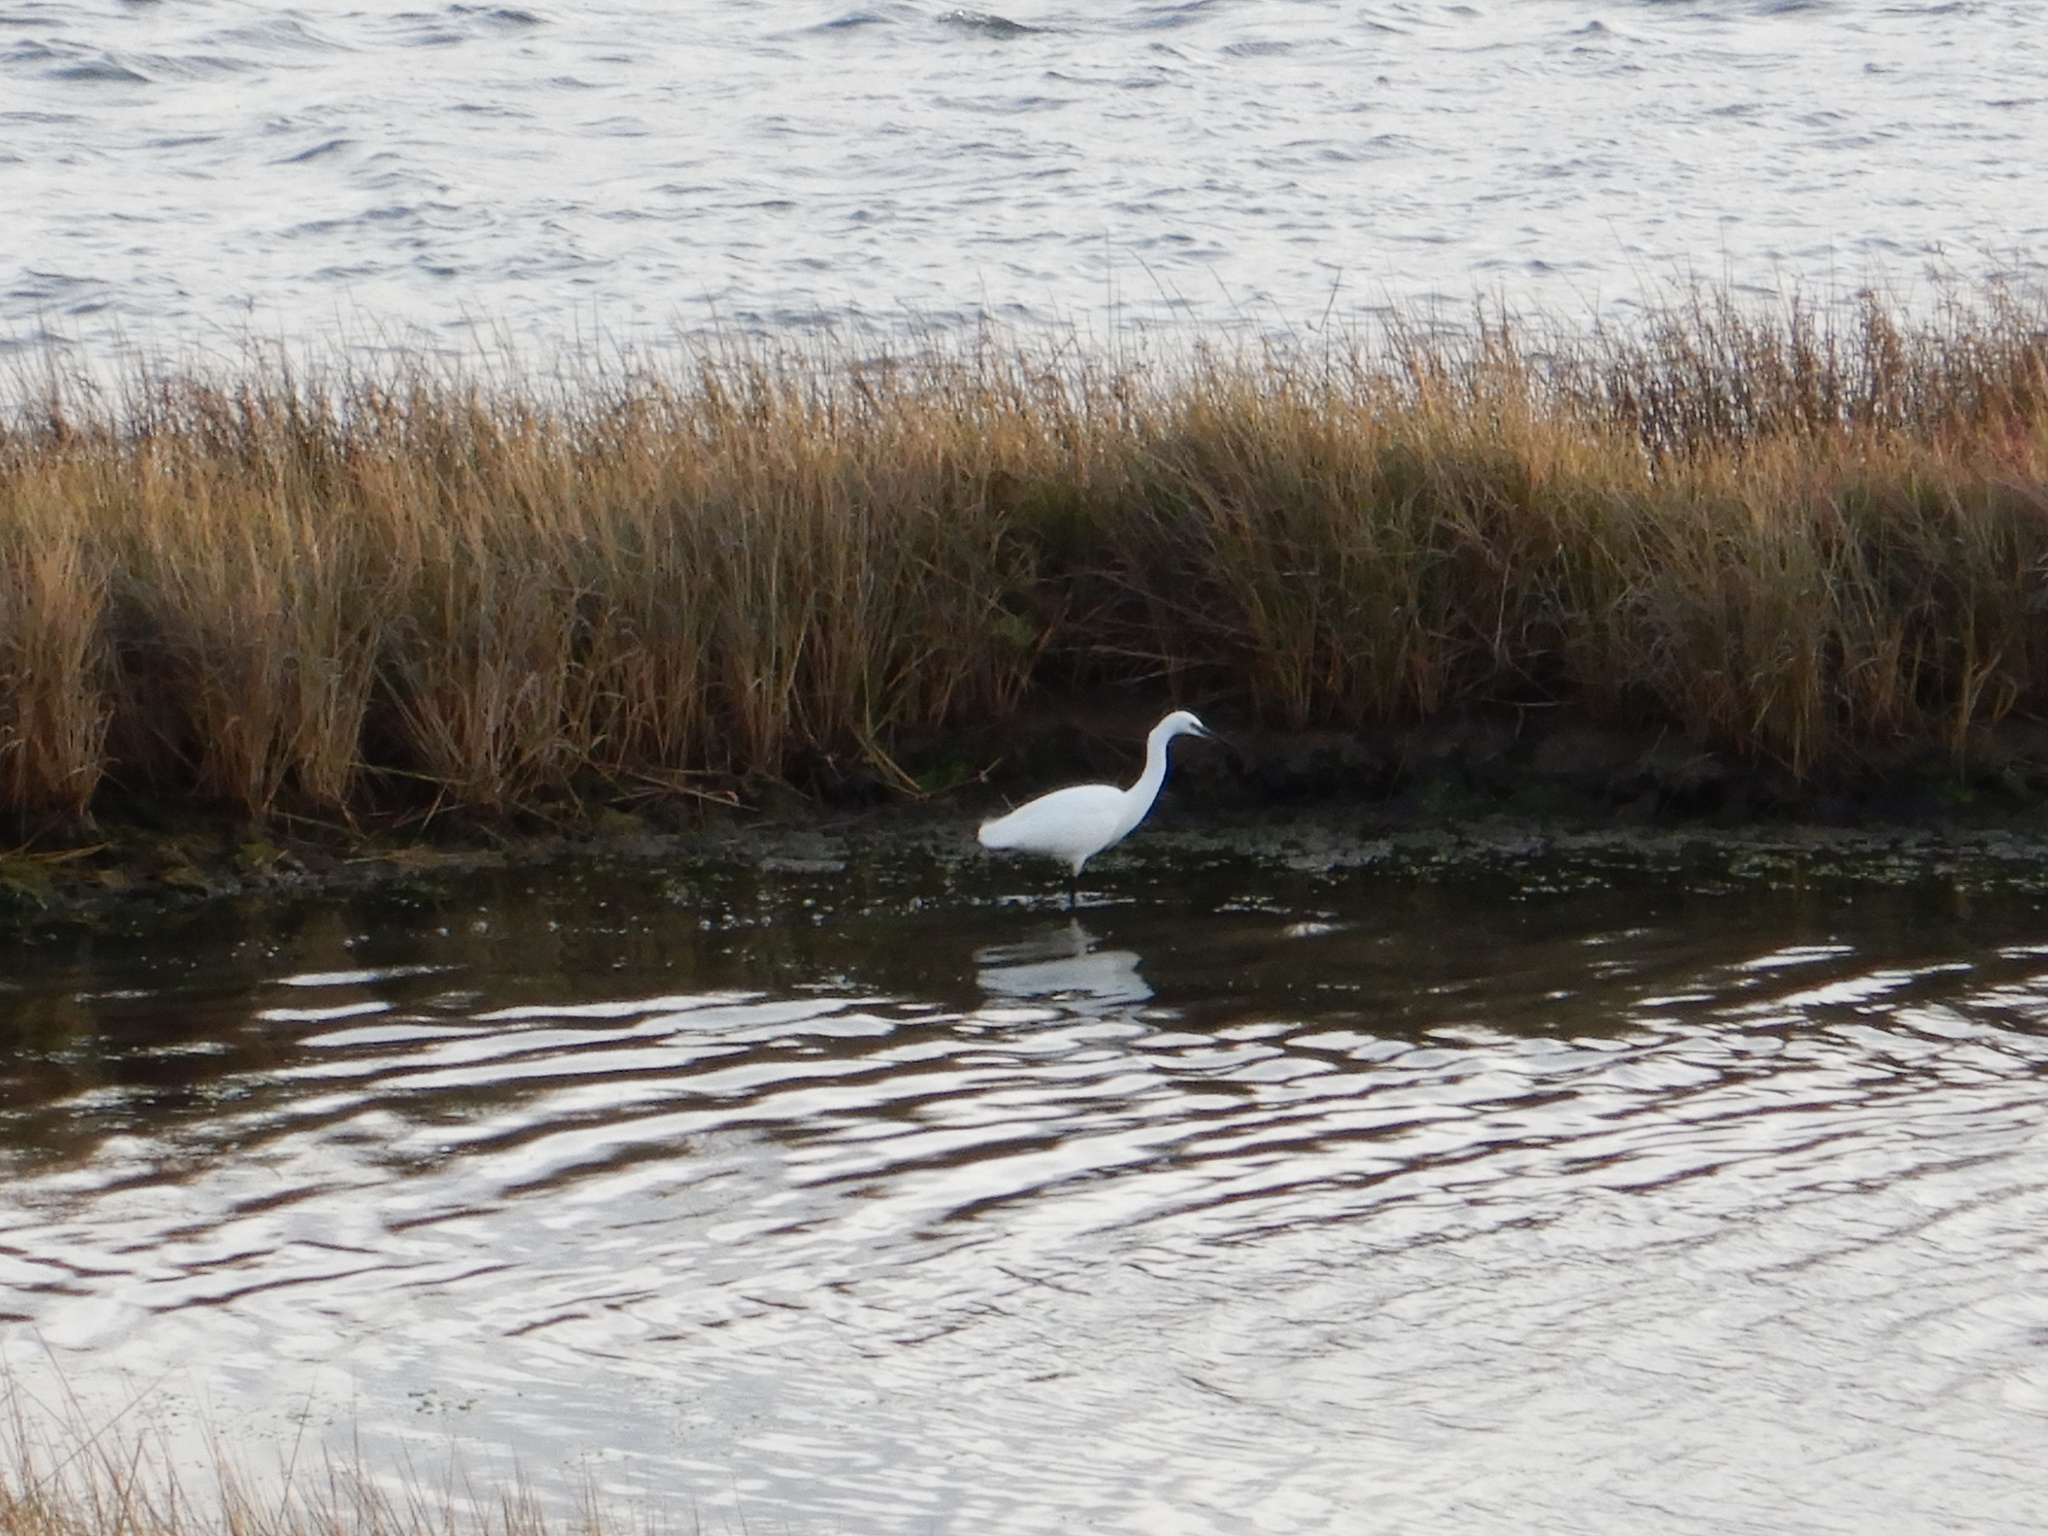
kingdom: Animalia
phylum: Chordata
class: Aves
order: Pelecaniformes
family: Ardeidae
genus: Egretta
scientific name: Egretta garzetta
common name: Little egret
